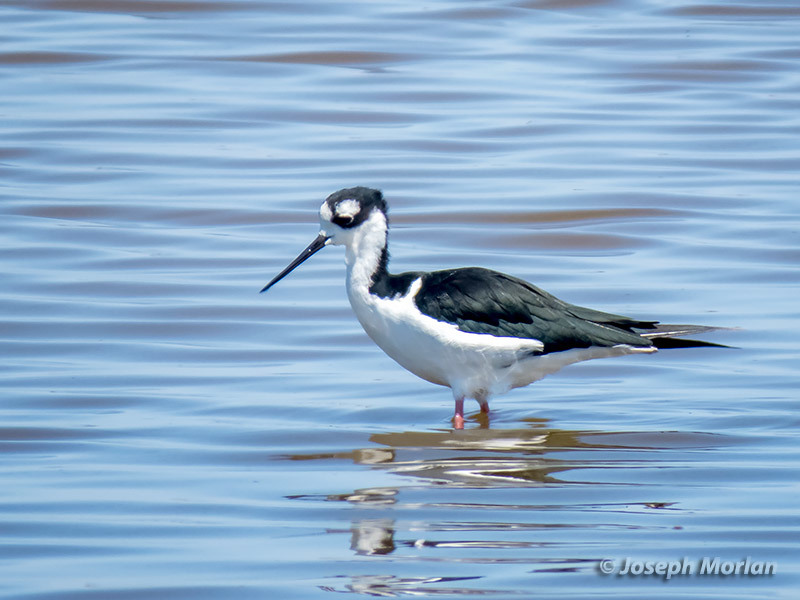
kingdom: Animalia
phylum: Chordata
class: Aves
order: Charadriiformes
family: Recurvirostridae
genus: Himantopus
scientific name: Himantopus mexicanus
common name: Black-necked stilt
